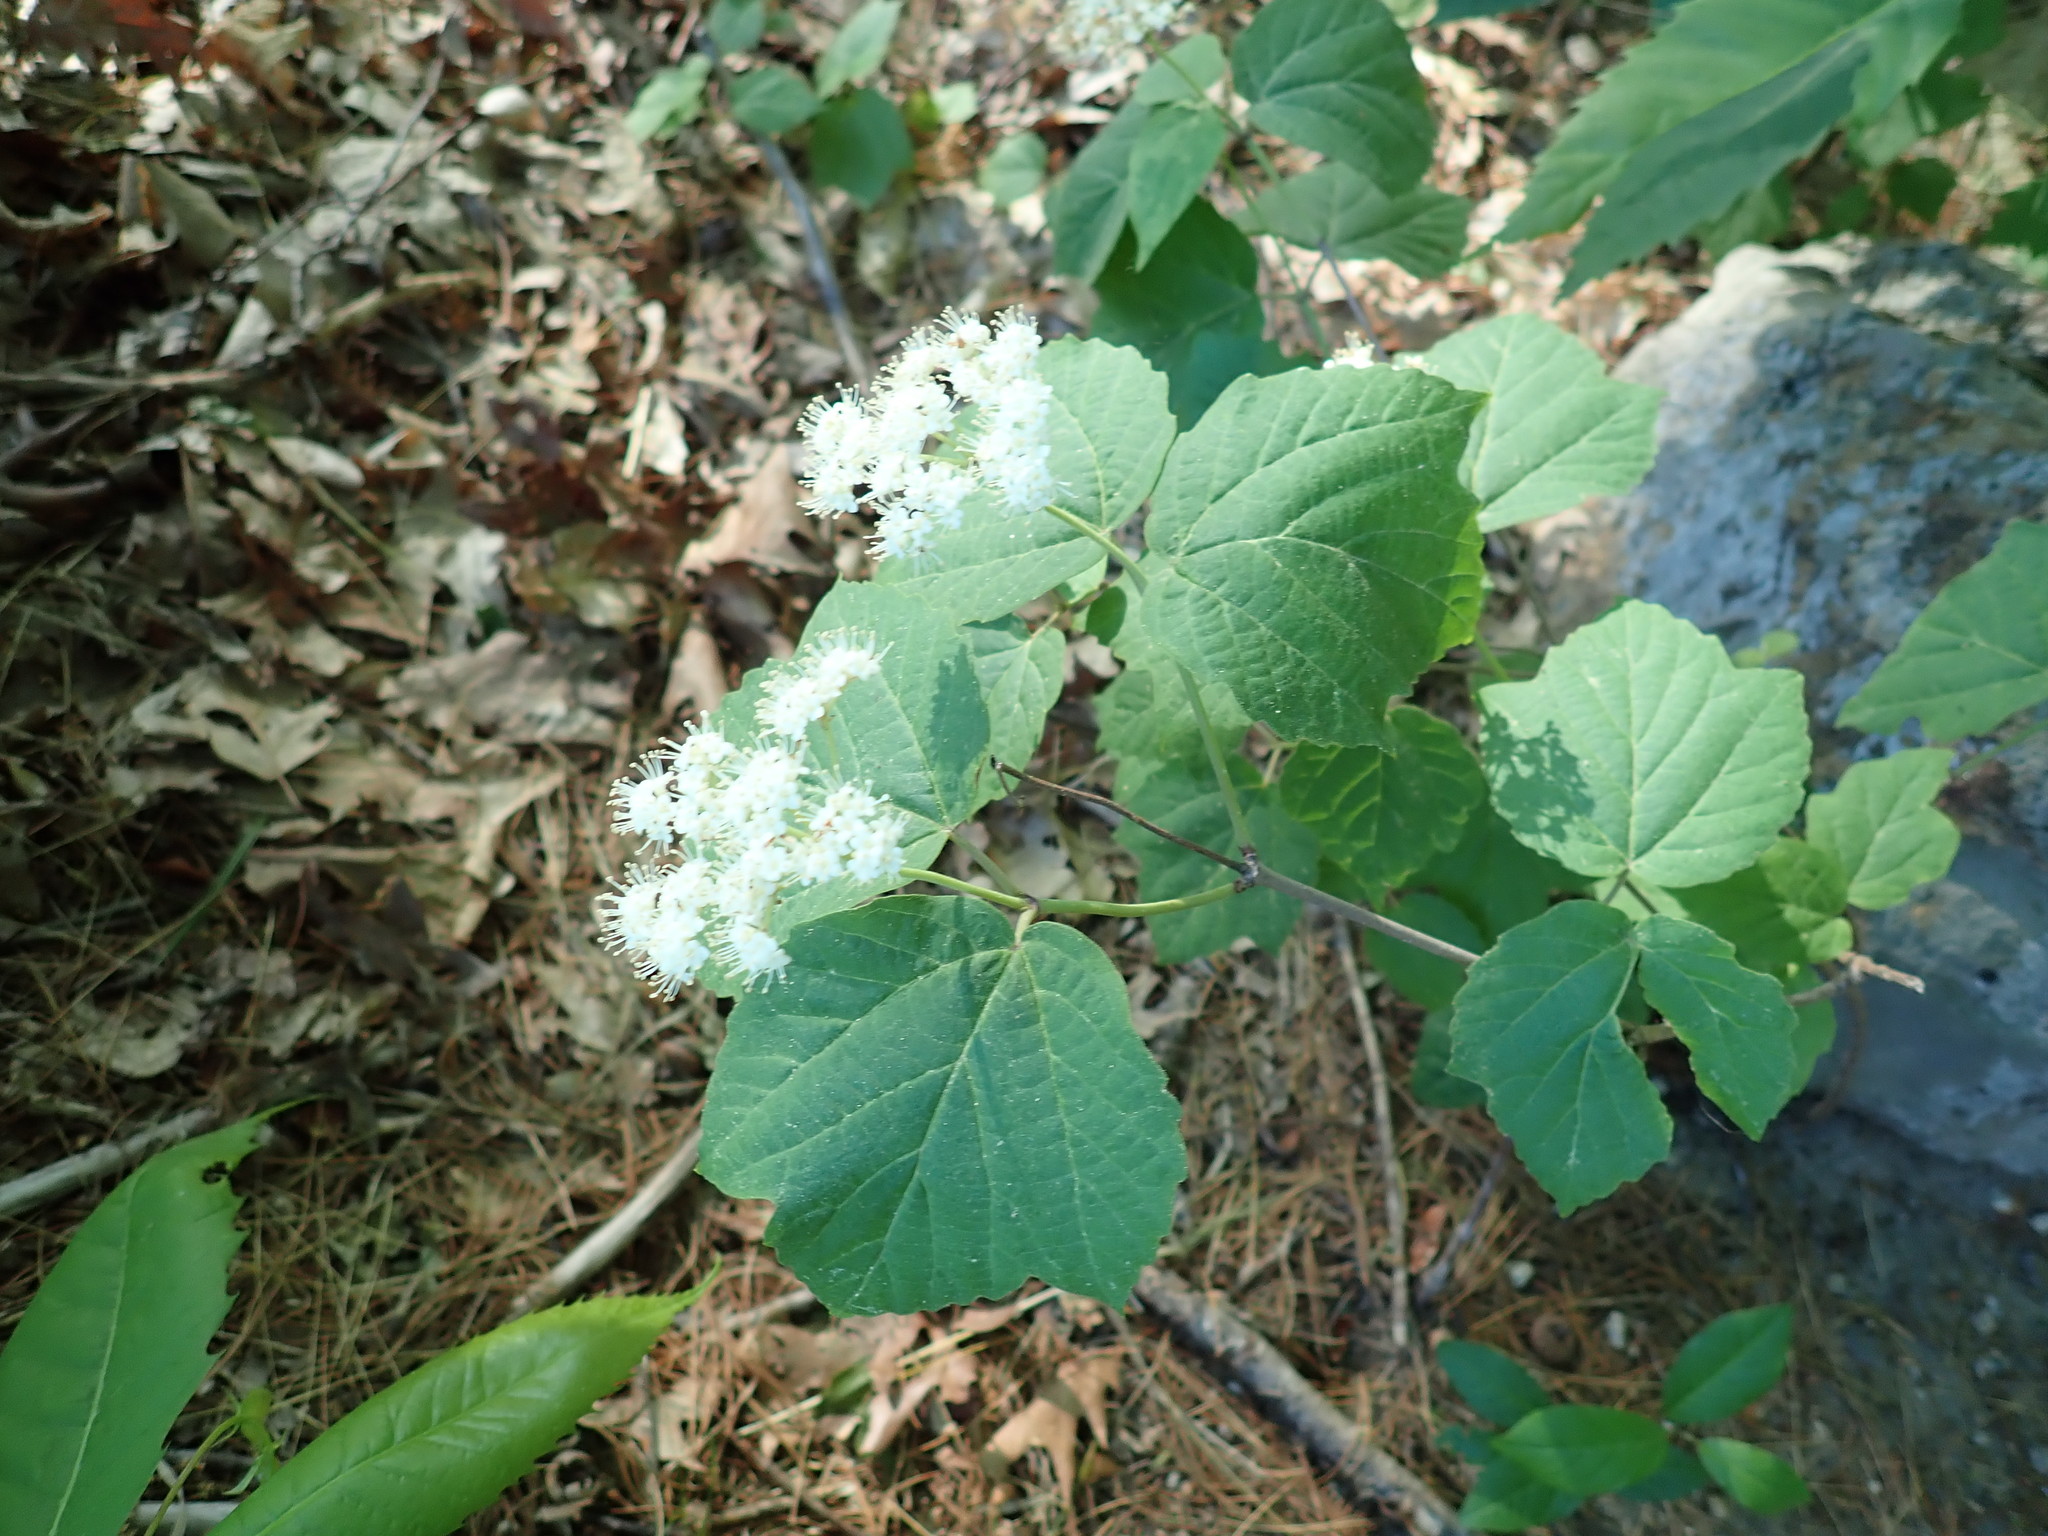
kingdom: Plantae
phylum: Tracheophyta
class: Magnoliopsida
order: Dipsacales
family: Viburnaceae
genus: Viburnum
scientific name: Viburnum acerifolium
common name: Dockmackie
